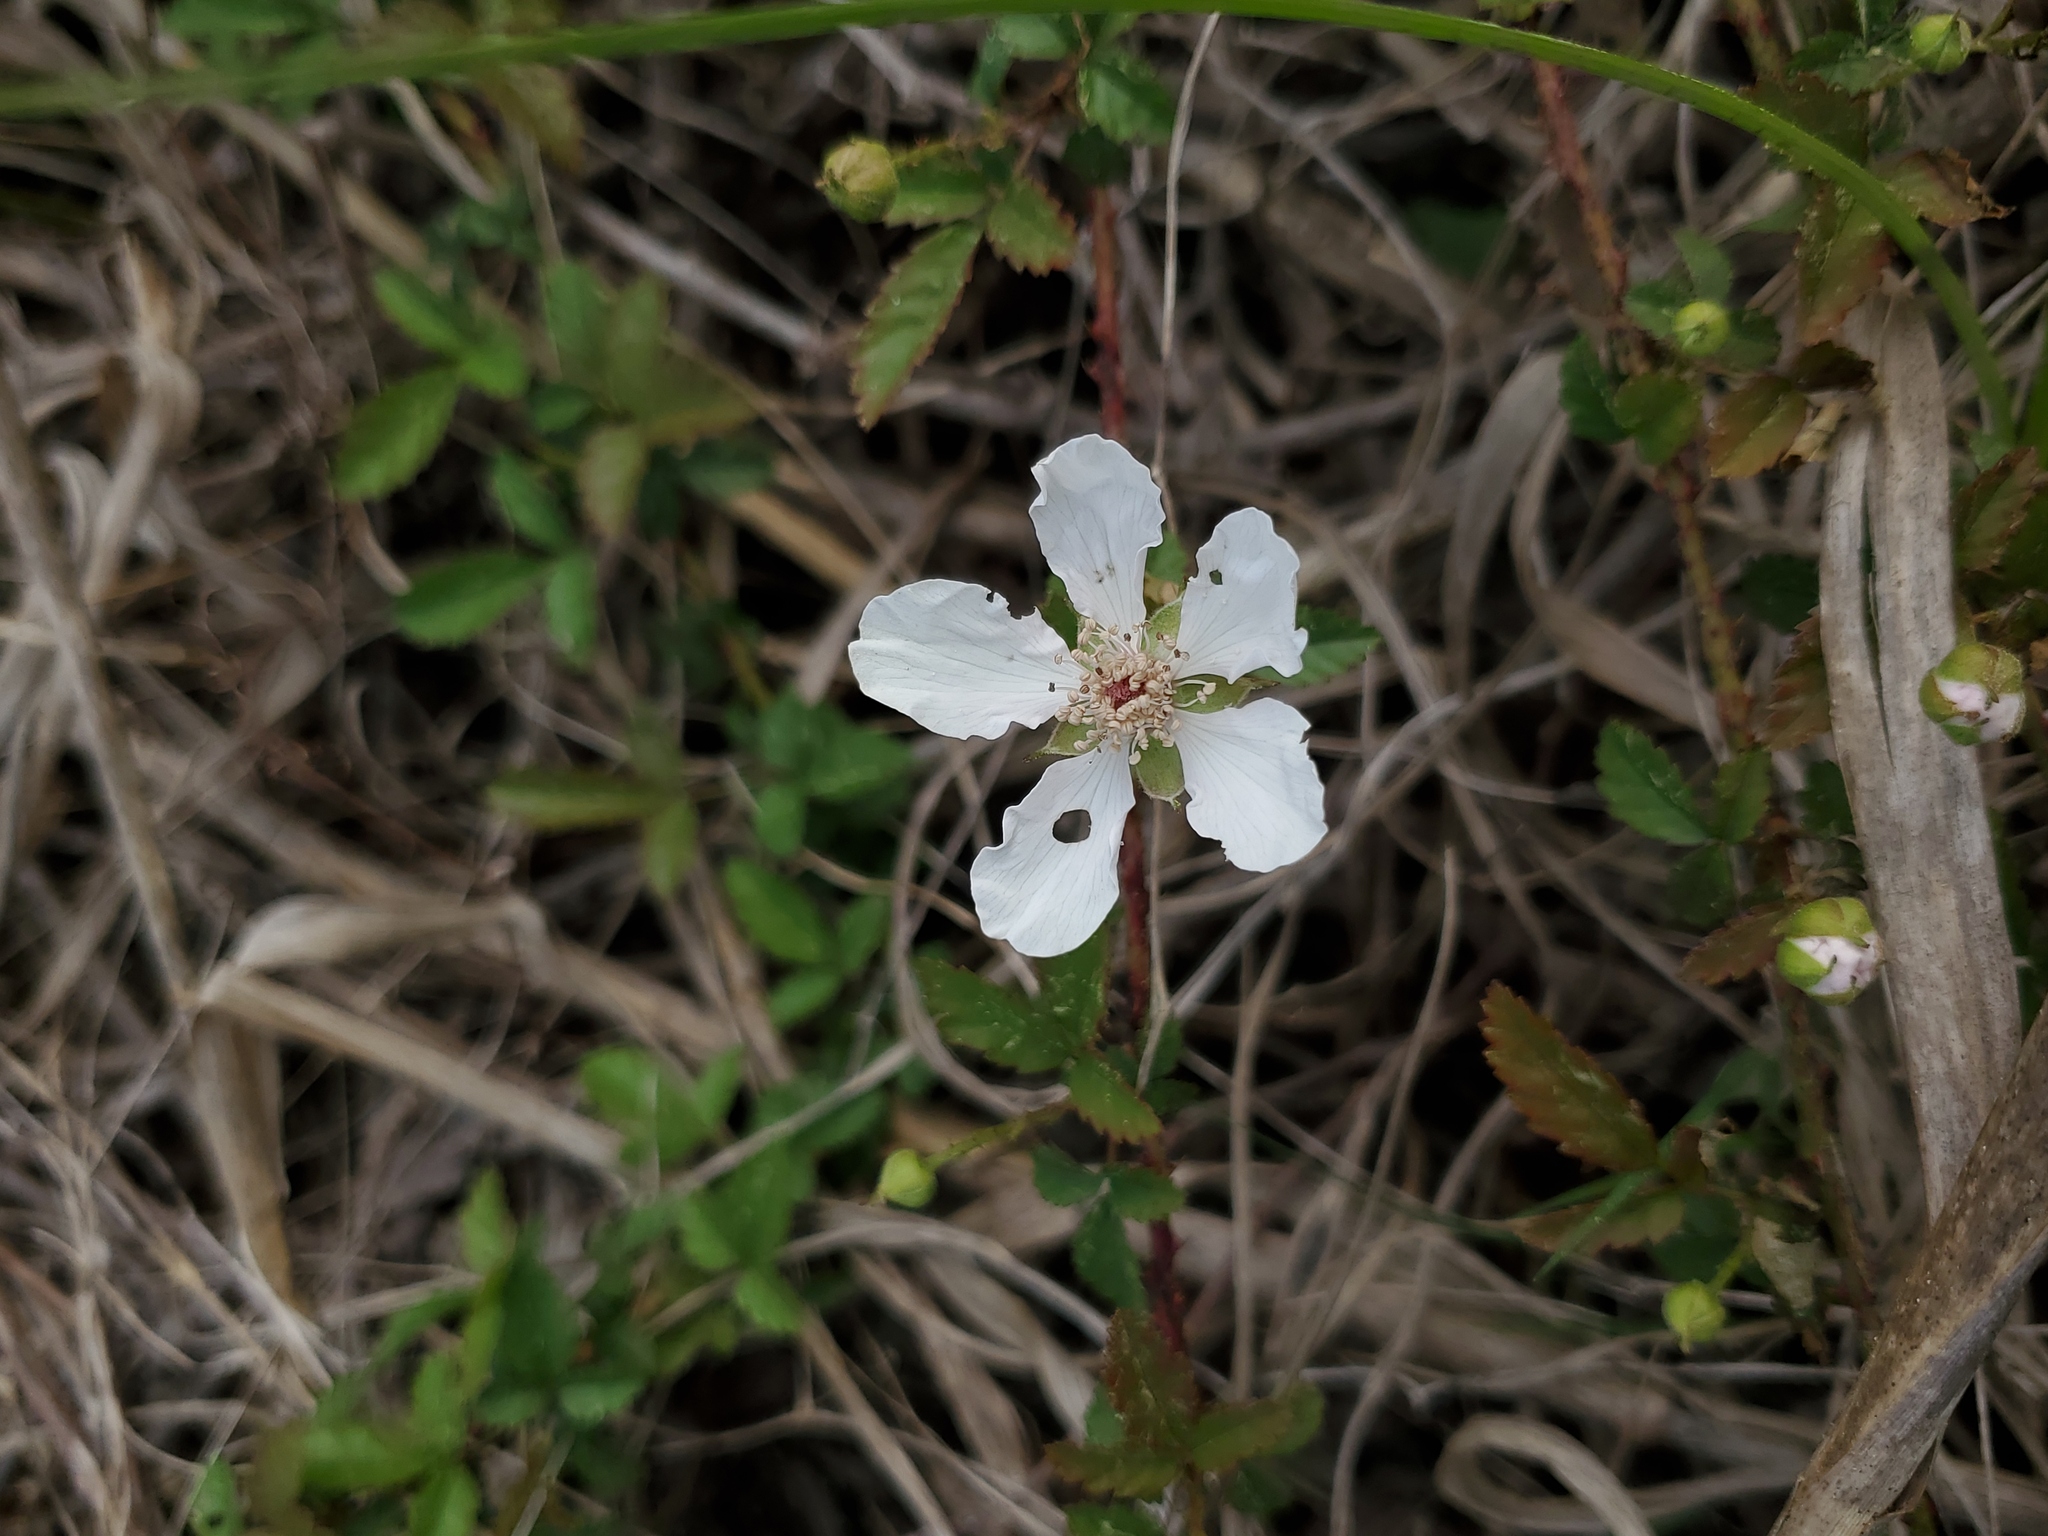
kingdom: Plantae
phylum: Tracheophyta
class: Magnoliopsida
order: Rosales
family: Rosaceae
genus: Rubus
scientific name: Rubus trivialis
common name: Southern dewberry
